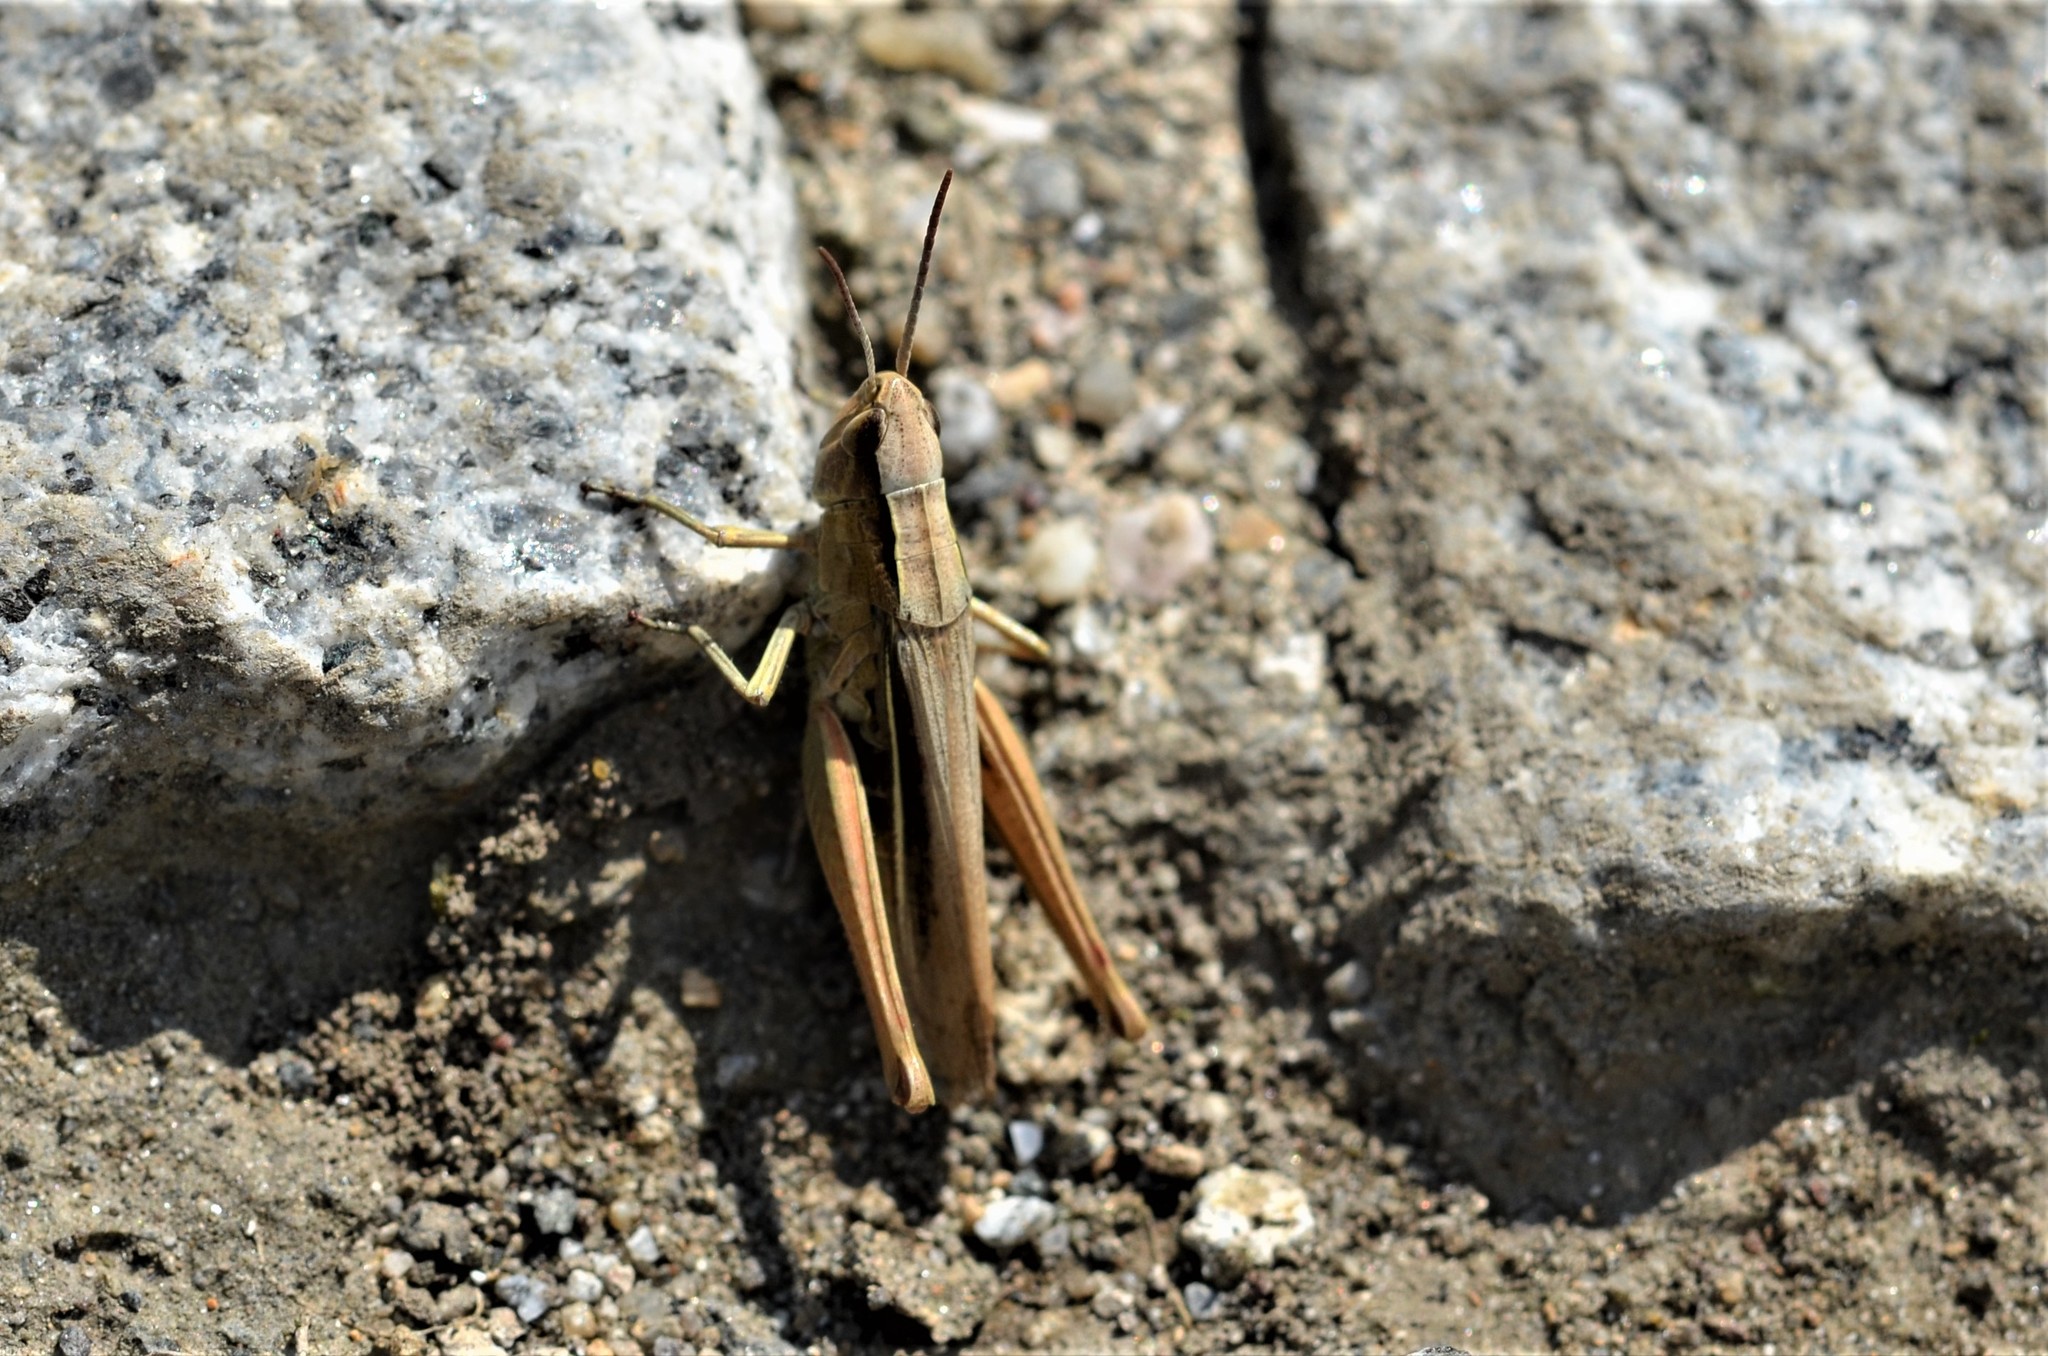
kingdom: Animalia
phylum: Arthropoda
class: Insecta
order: Orthoptera
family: Acrididae
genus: Chorthippus
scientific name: Chorthippus albomarginatus
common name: Lesser marsh grasshopper
